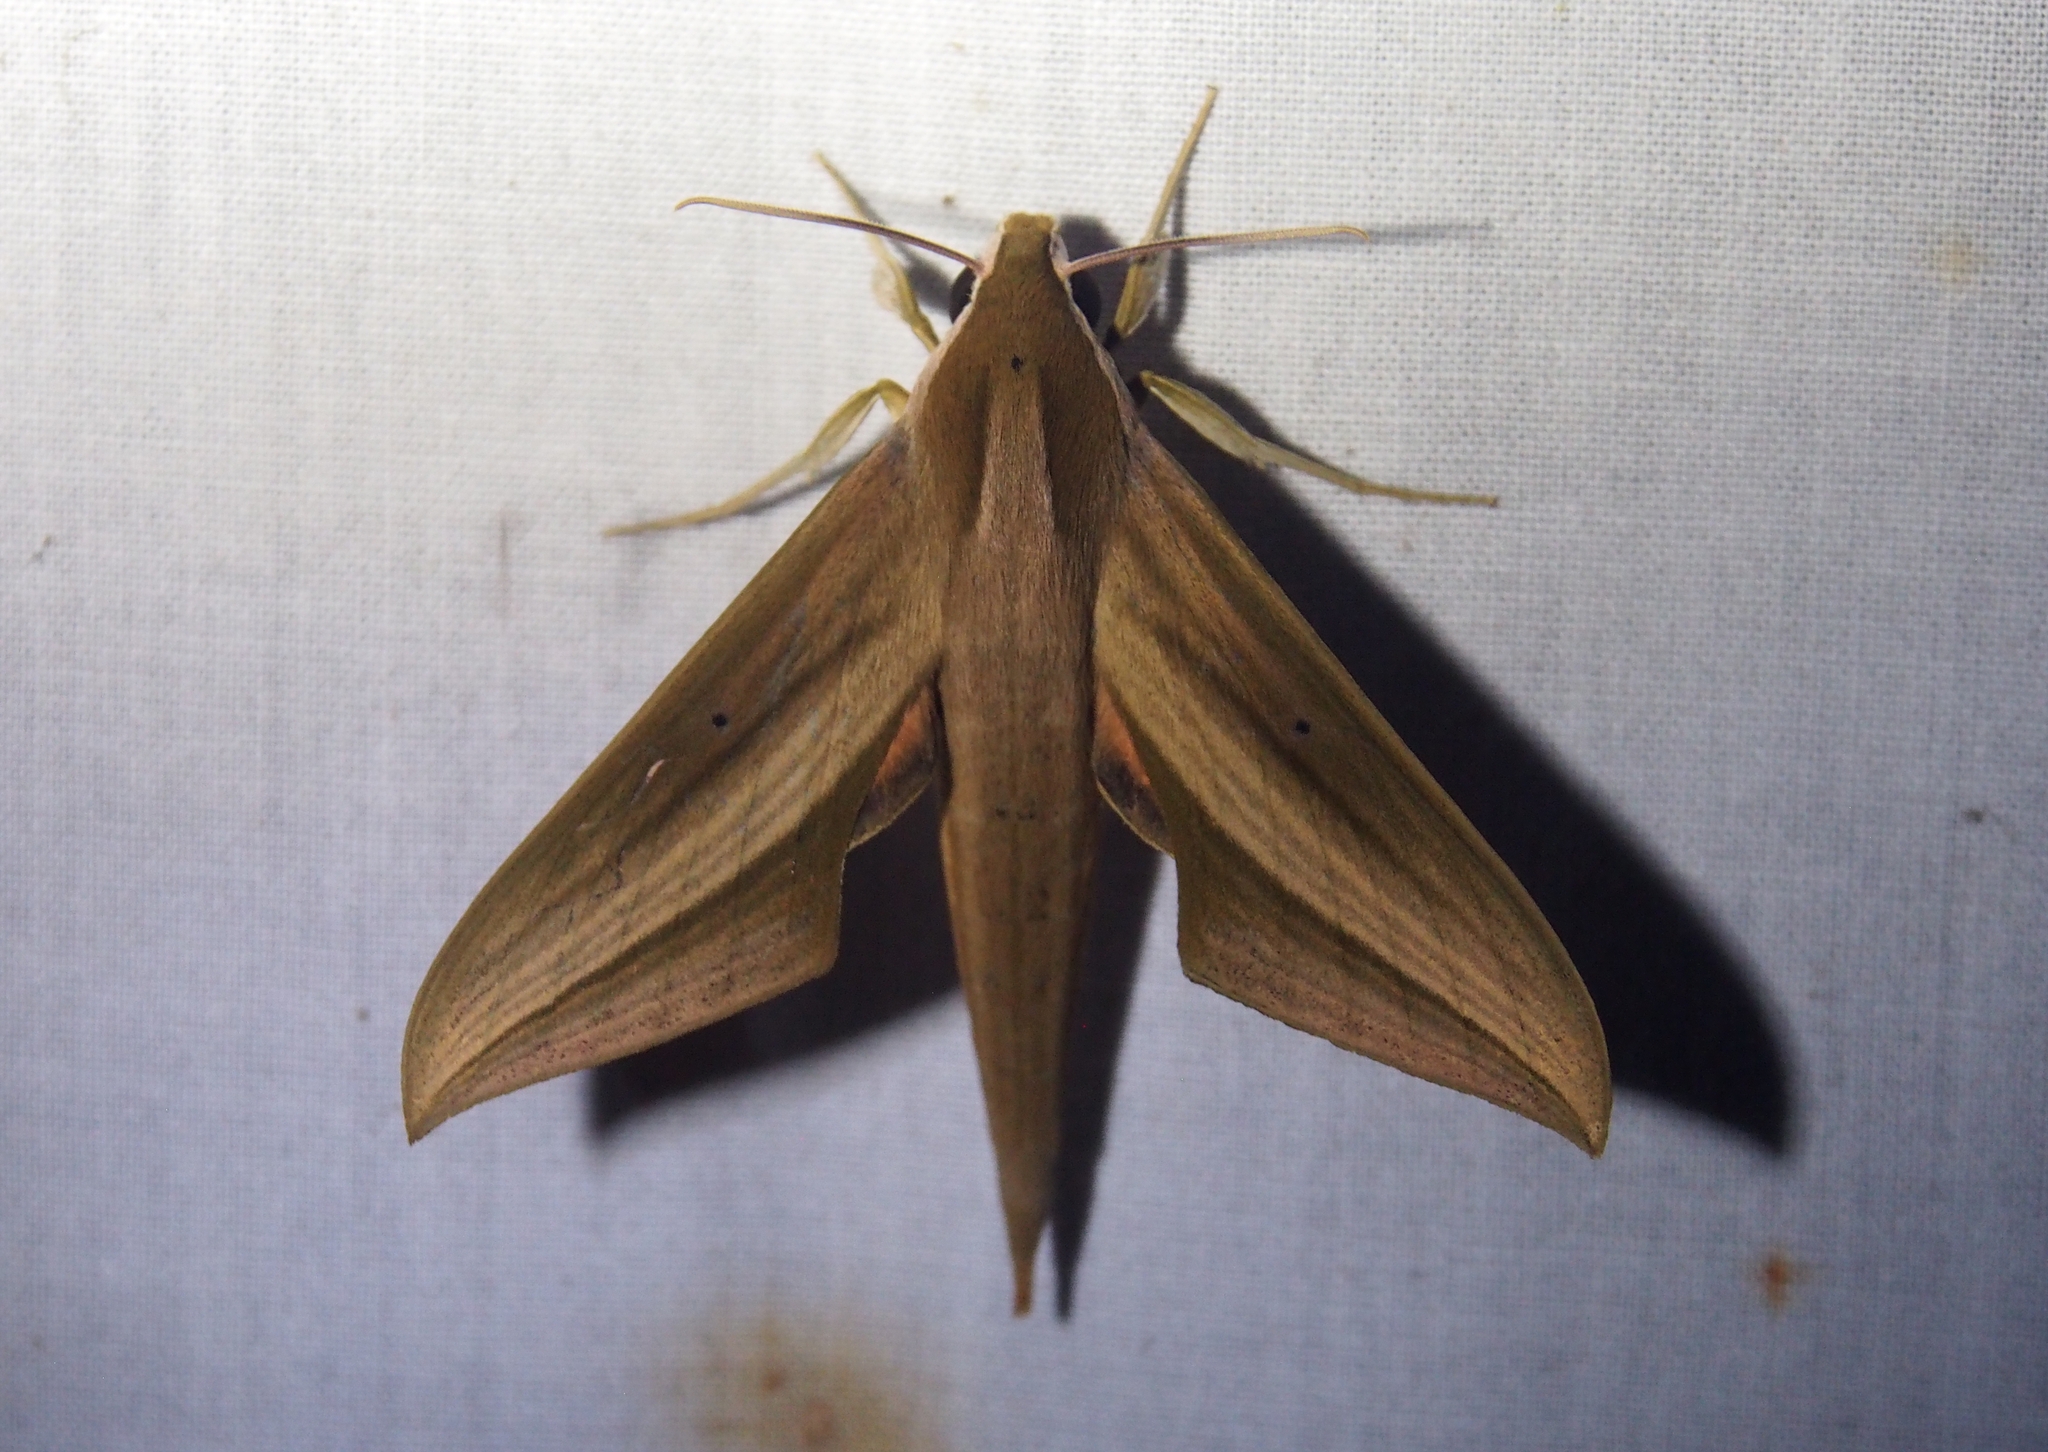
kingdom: Animalia
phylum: Arthropoda
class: Insecta
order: Lepidoptera
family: Sphingidae
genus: Xylophanes
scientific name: Xylophanes loelia
